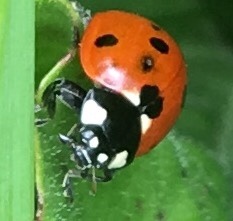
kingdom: Animalia
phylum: Arthropoda
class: Insecta
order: Coleoptera
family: Coccinellidae
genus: Coccinella
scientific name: Coccinella septempunctata
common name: Sevenspotted lady beetle
